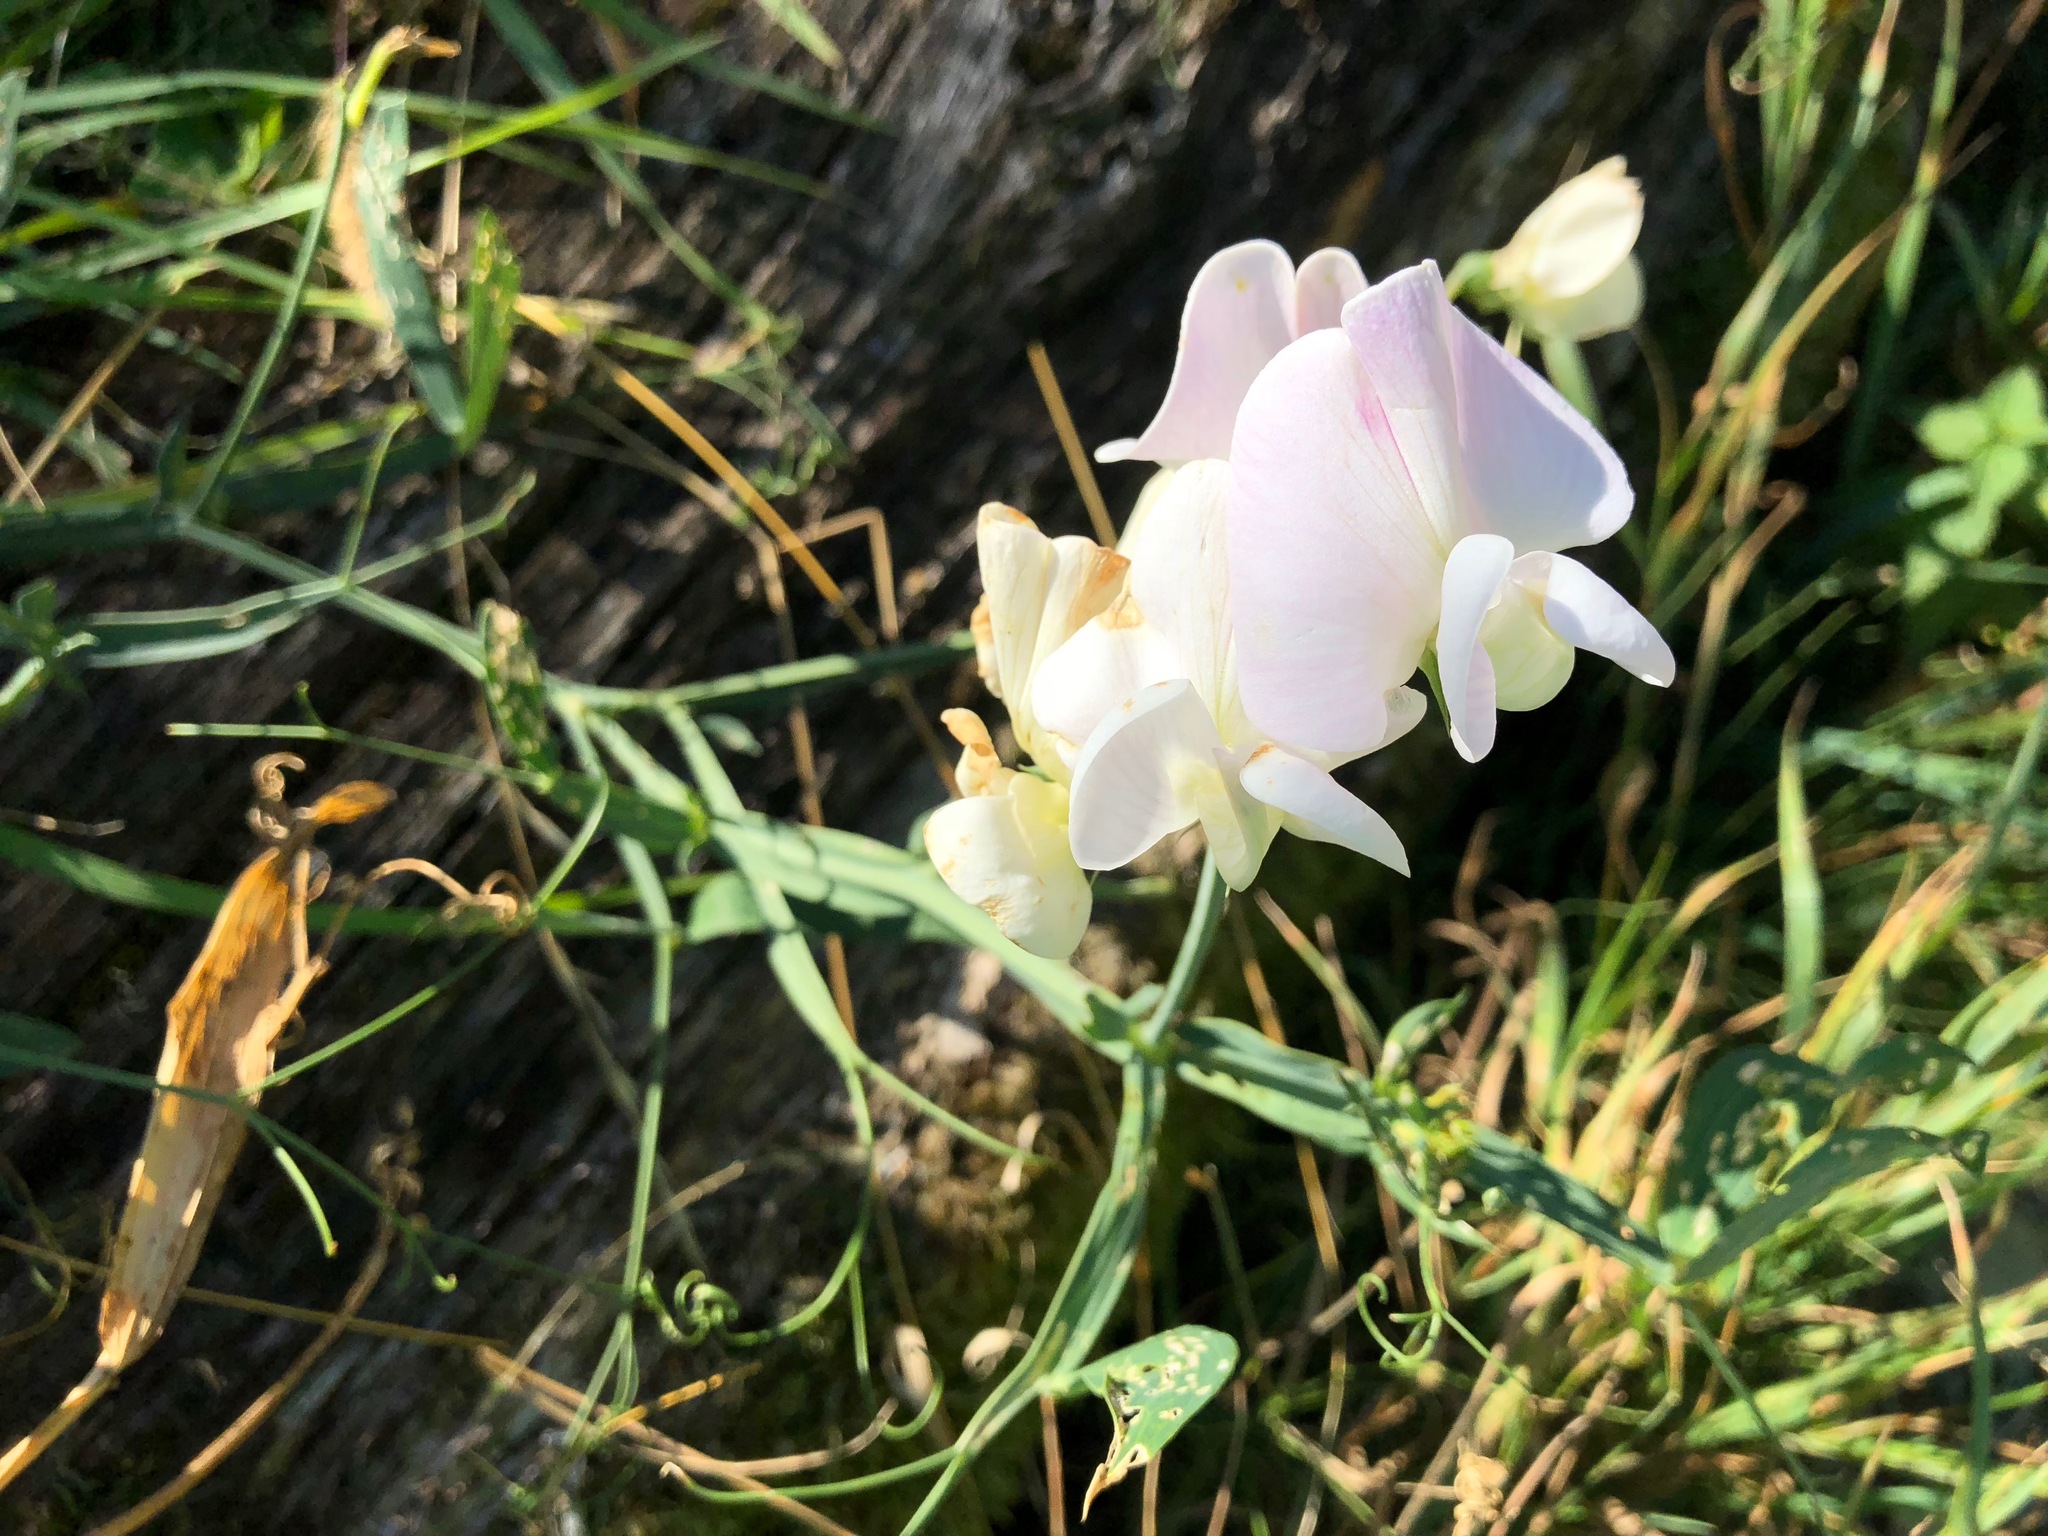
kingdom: Plantae
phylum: Tracheophyta
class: Magnoliopsida
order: Fabales
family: Fabaceae
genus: Lathyrus
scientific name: Lathyrus latifolius
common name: Perennial pea
